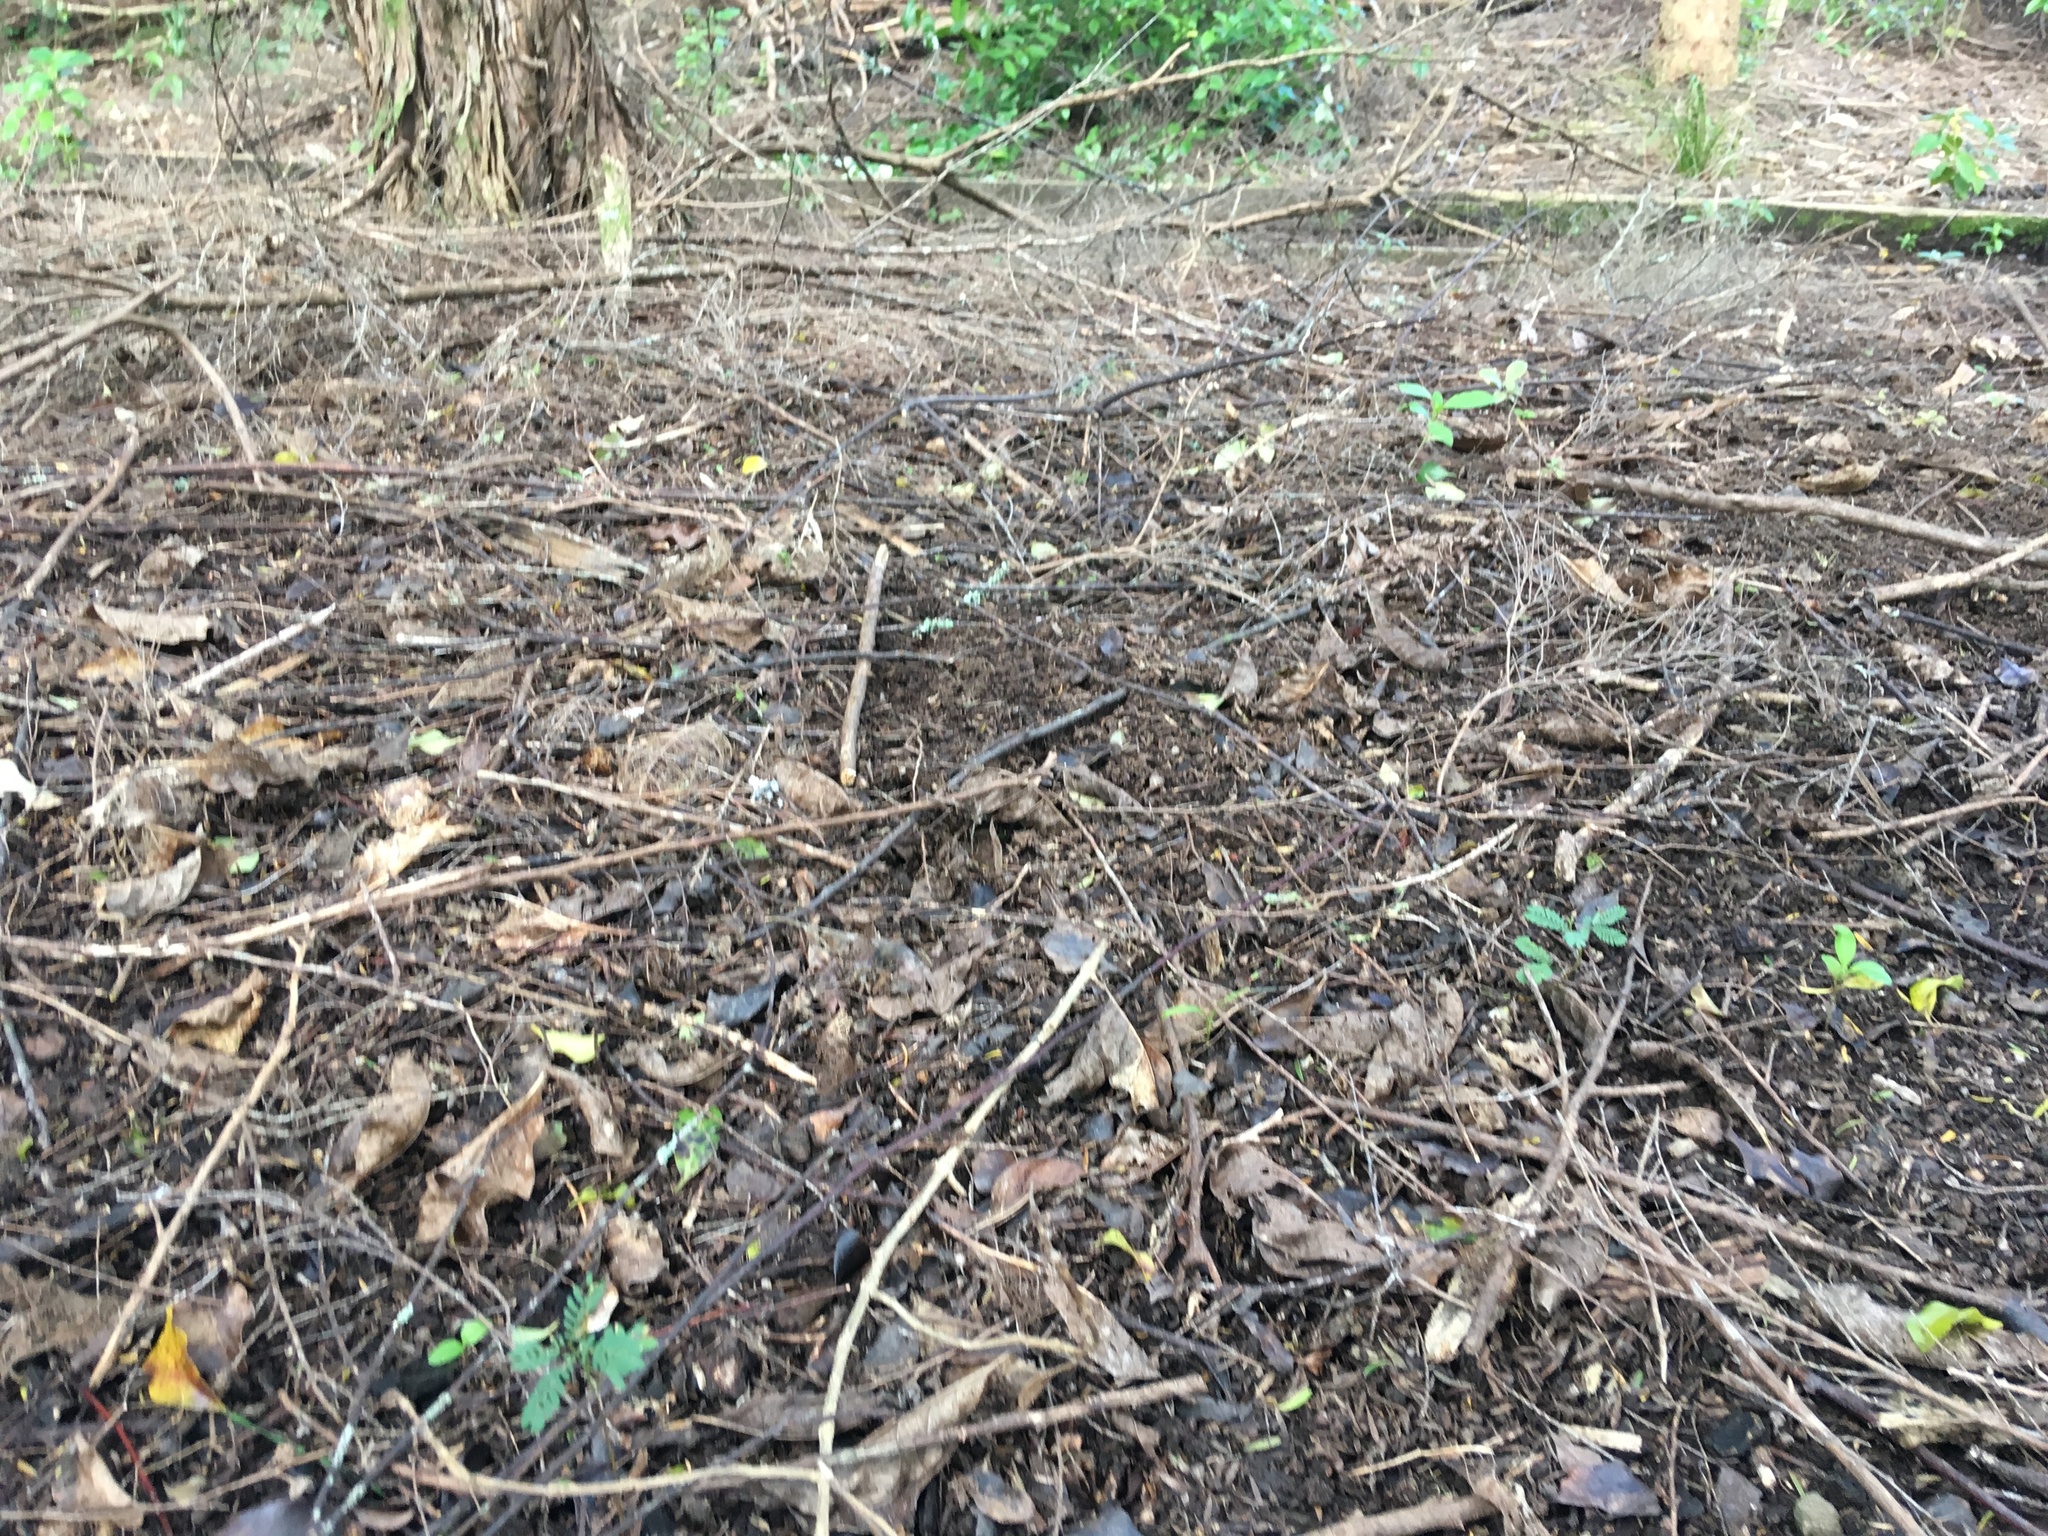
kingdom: Plantae
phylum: Tracheophyta
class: Magnoliopsida
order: Fabales
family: Fabaceae
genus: Paraserianthes
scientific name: Paraserianthes lophantha
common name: Plume albizia
